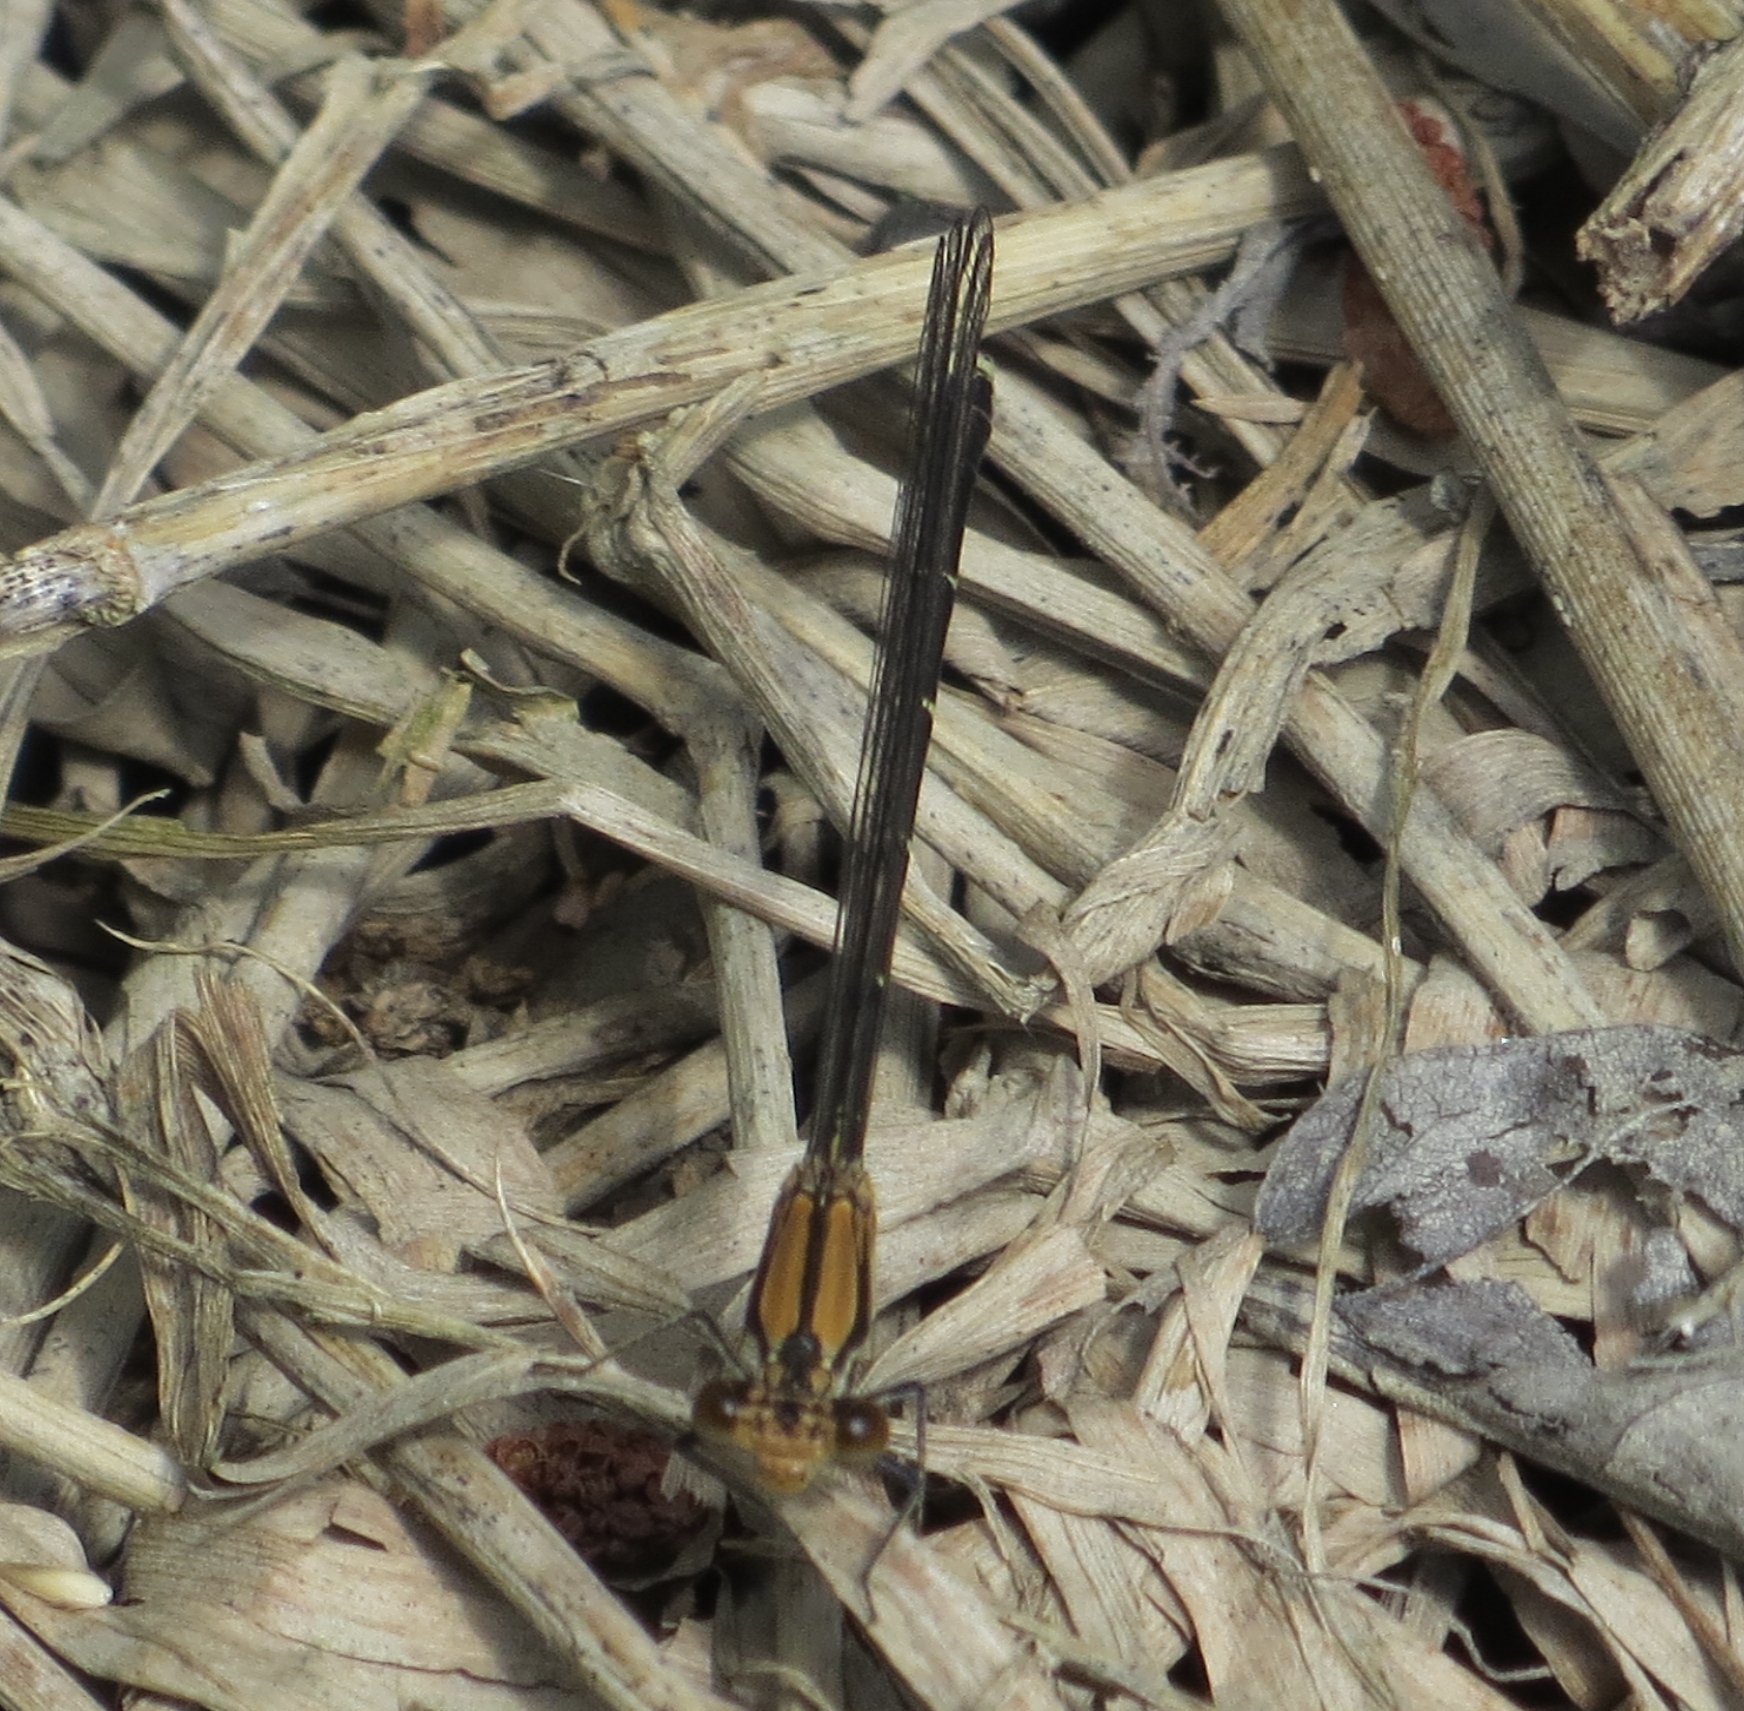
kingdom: Animalia
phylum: Arthropoda
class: Insecta
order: Odonata
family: Coenagrionidae
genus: Argia
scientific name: Argia tibialis
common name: Blue-tipped dancer
